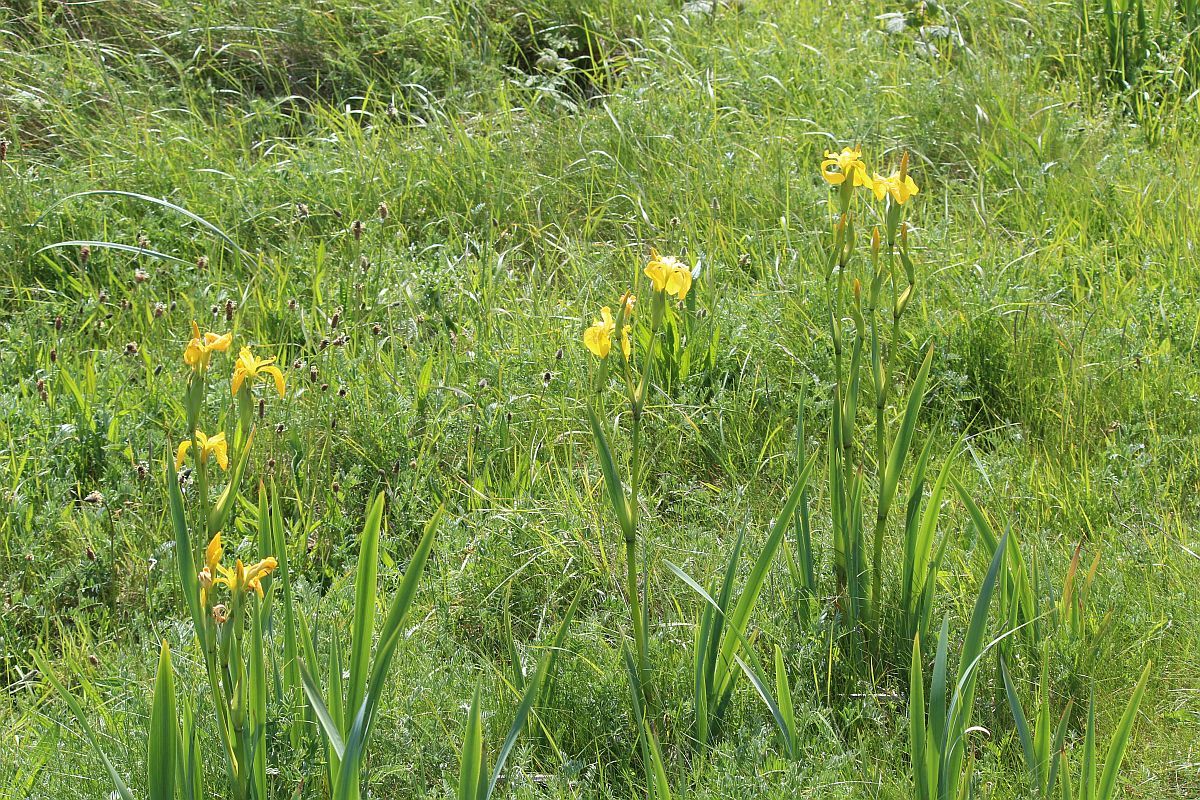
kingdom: Plantae
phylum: Tracheophyta
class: Liliopsida
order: Asparagales
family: Iridaceae
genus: Iris
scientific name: Iris pseudacorus
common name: Yellow flag
